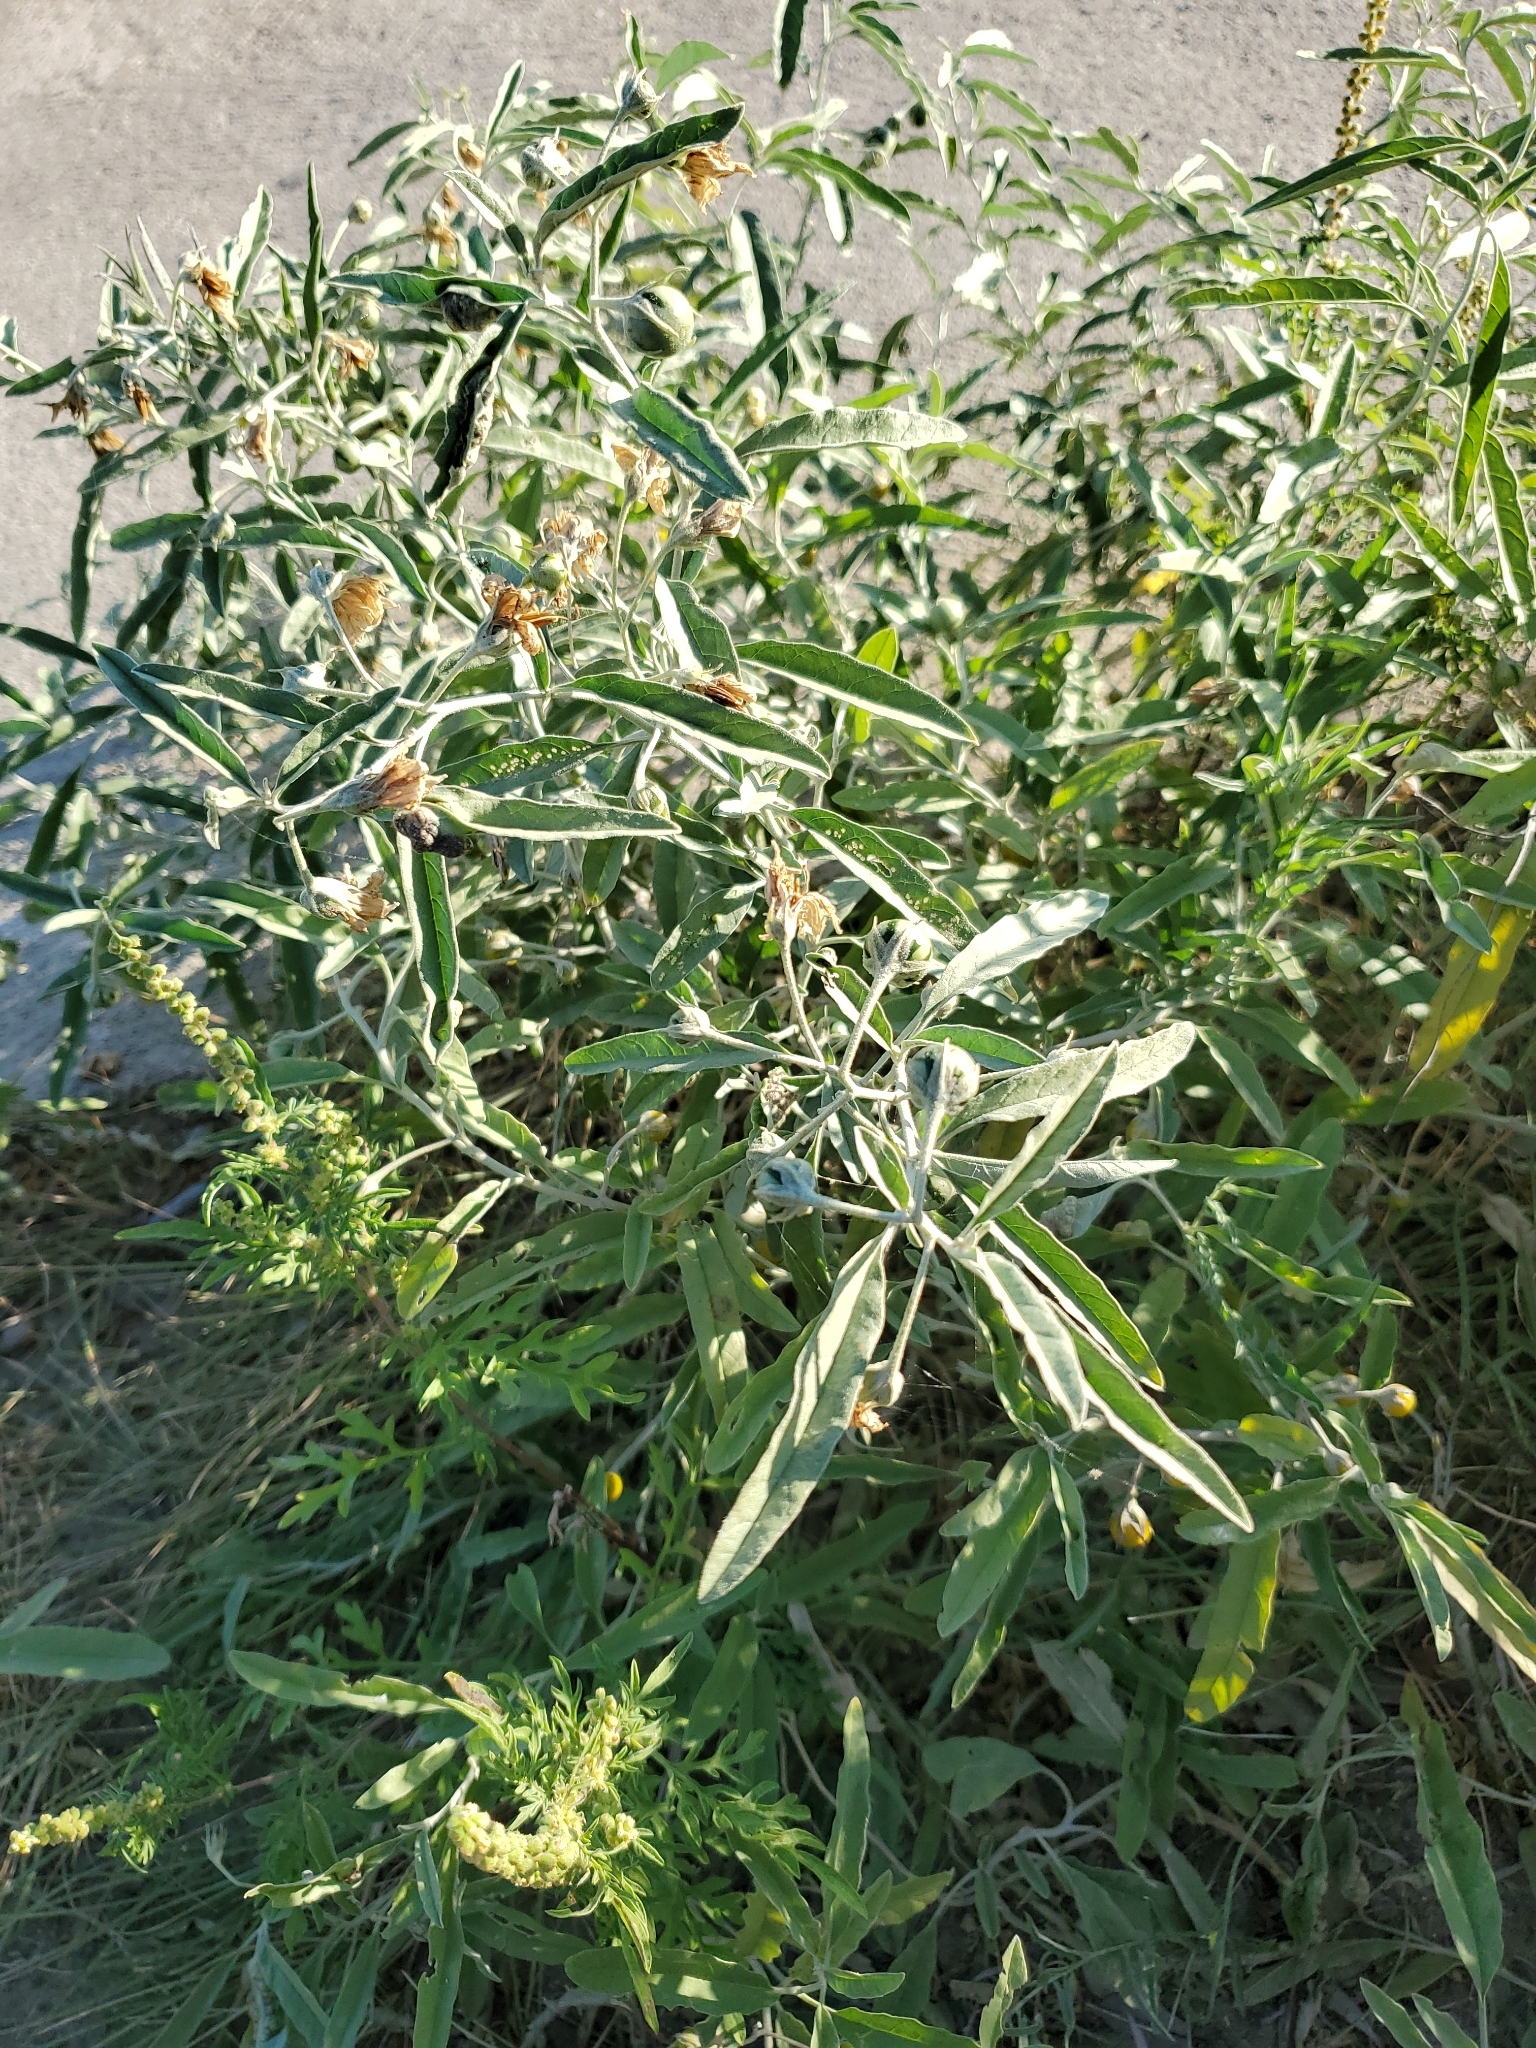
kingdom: Plantae
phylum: Tracheophyta
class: Magnoliopsida
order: Solanales
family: Solanaceae
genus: Solanum
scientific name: Solanum elaeagnifolium
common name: Silverleaf nightshade
